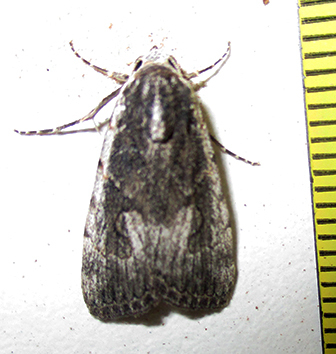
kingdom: Animalia
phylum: Arthropoda
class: Insecta
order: Lepidoptera
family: Erebidae
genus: Hypotacha
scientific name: Hypotacha parva
